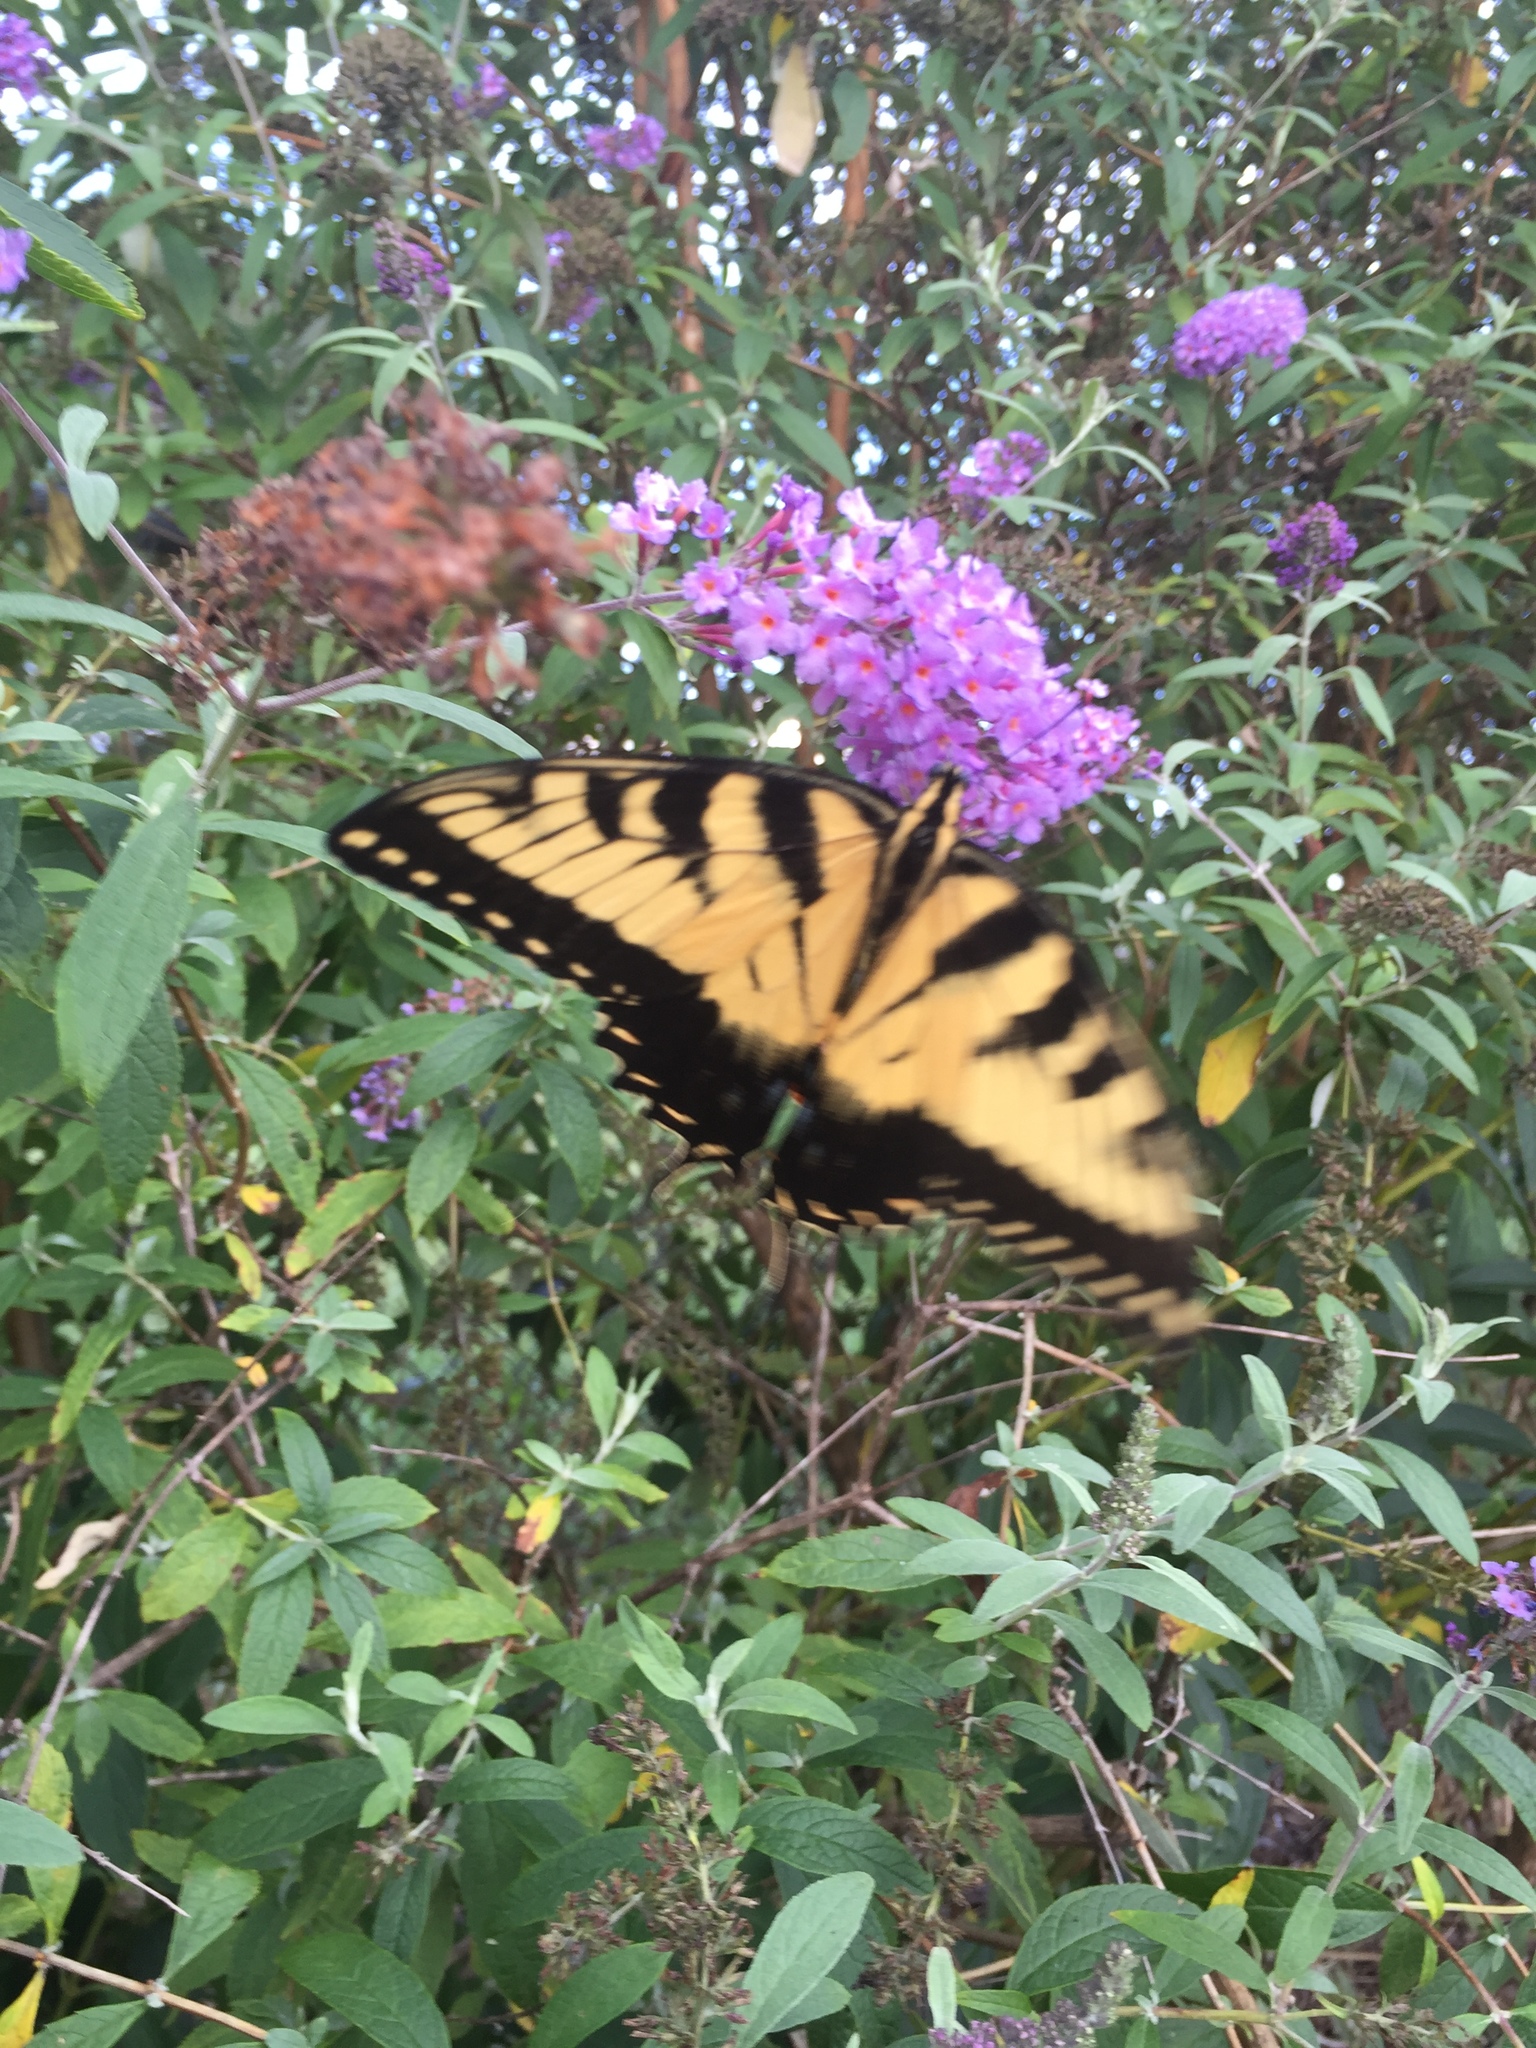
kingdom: Animalia
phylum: Arthropoda
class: Insecta
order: Lepidoptera
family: Papilionidae
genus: Papilio
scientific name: Papilio glaucus
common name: Tiger swallowtail
